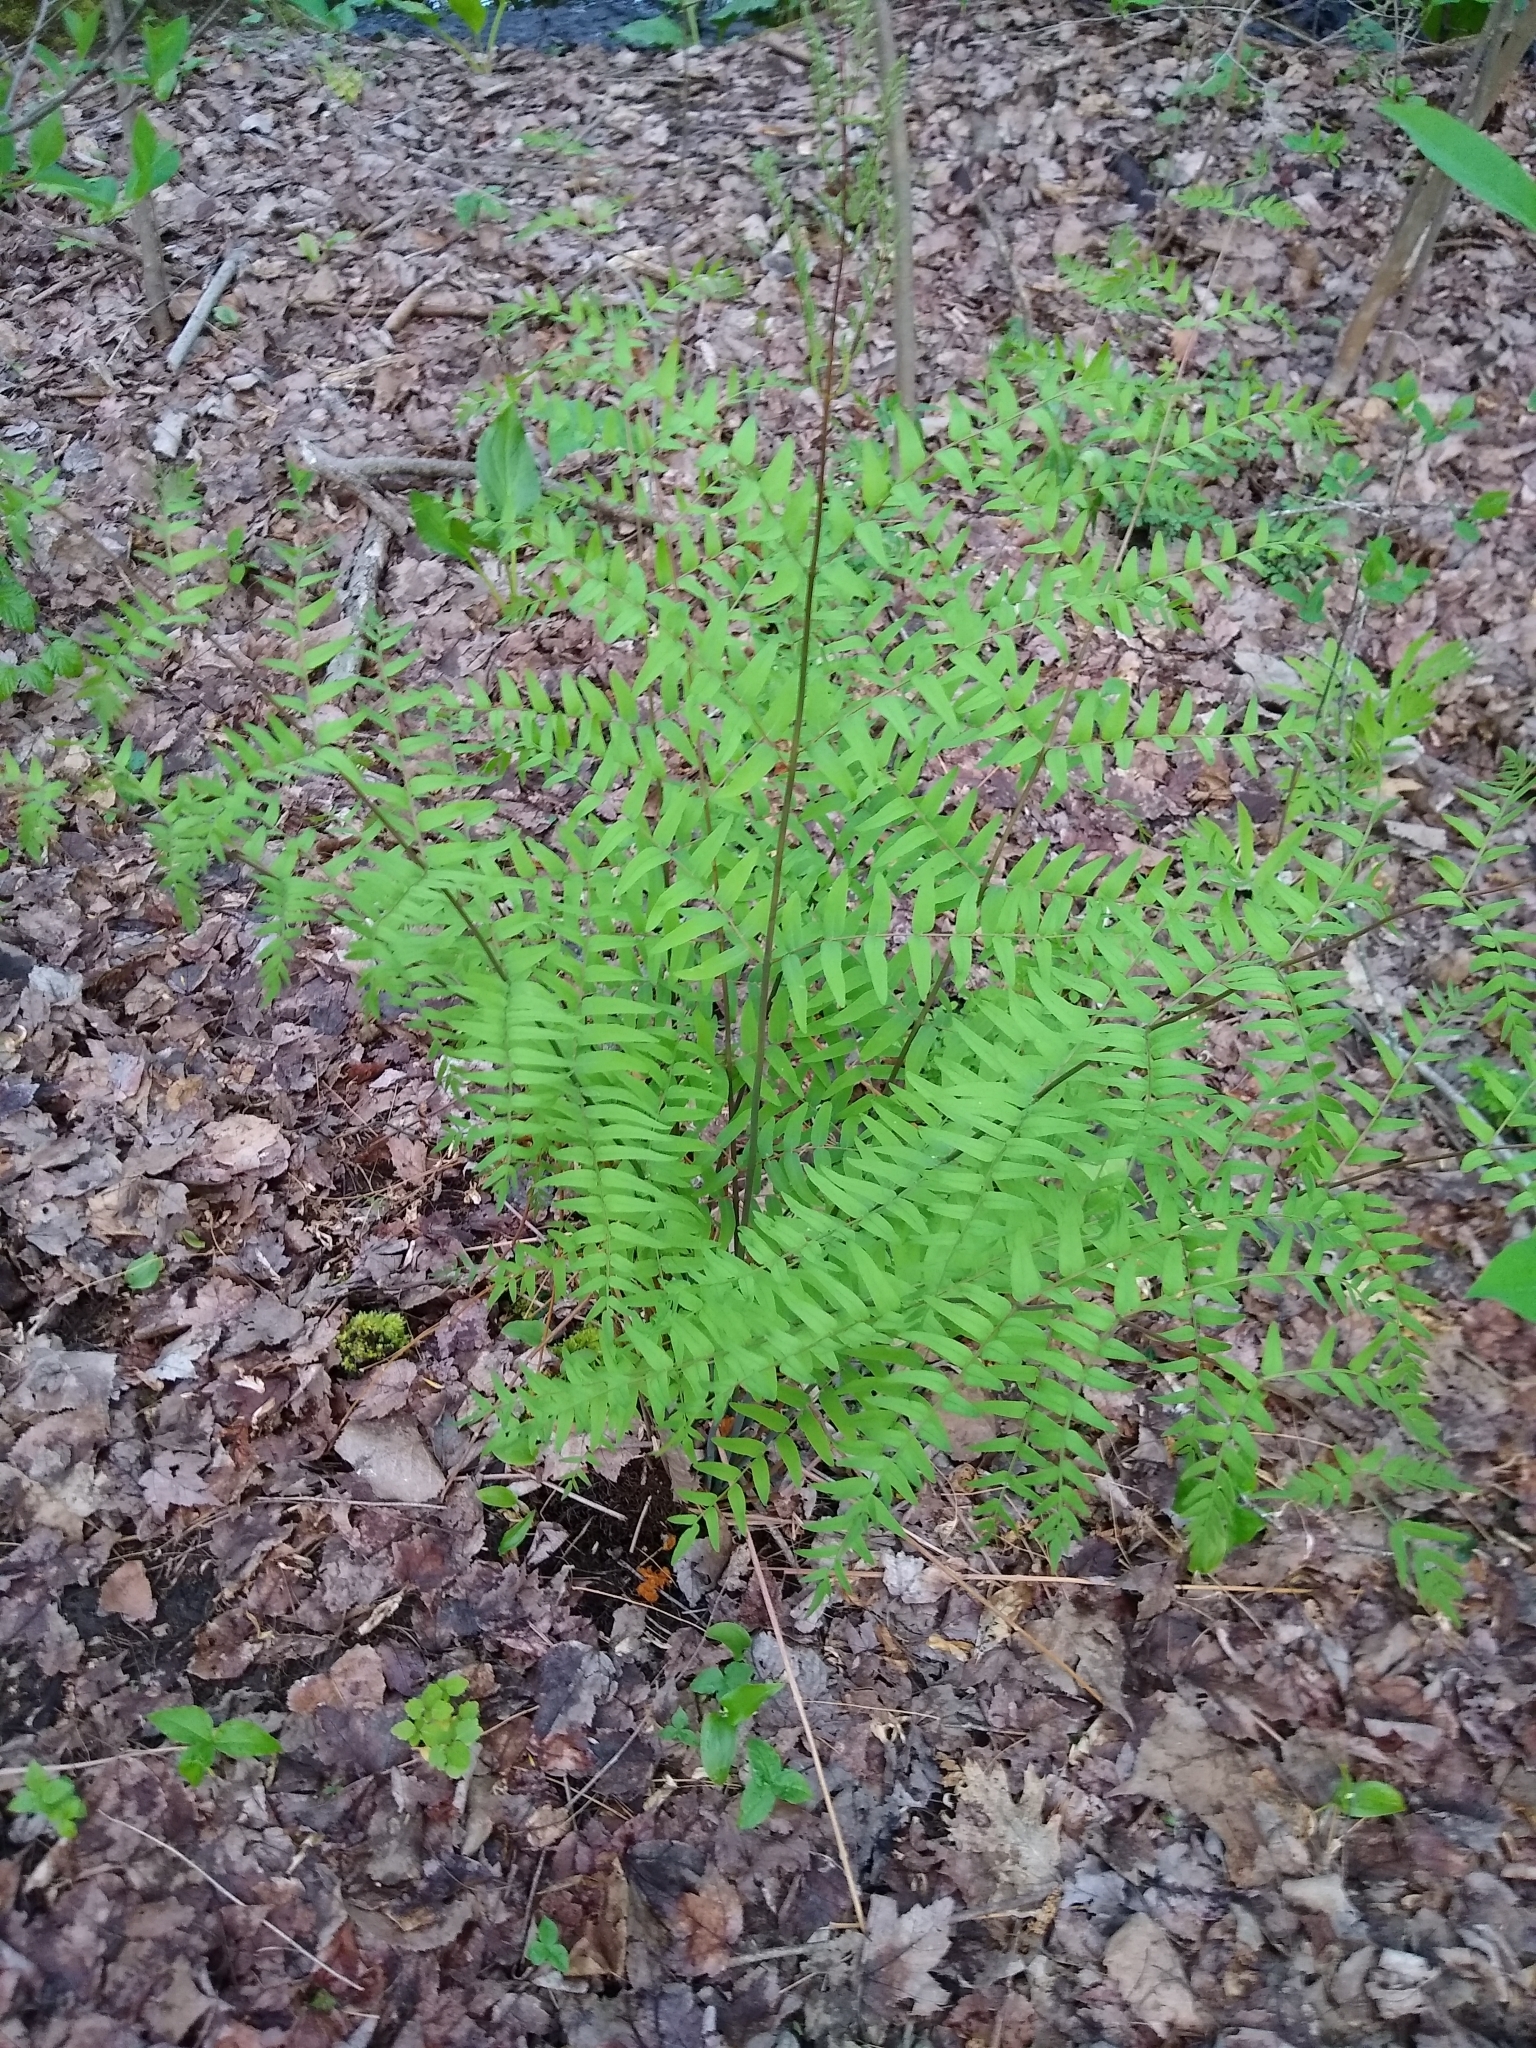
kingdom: Plantae
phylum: Tracheophyta
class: Polypodiopsida
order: Osmundales
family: Osmundaceae
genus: Osmunda
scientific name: Osmunda spectabilis
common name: American royal fern
